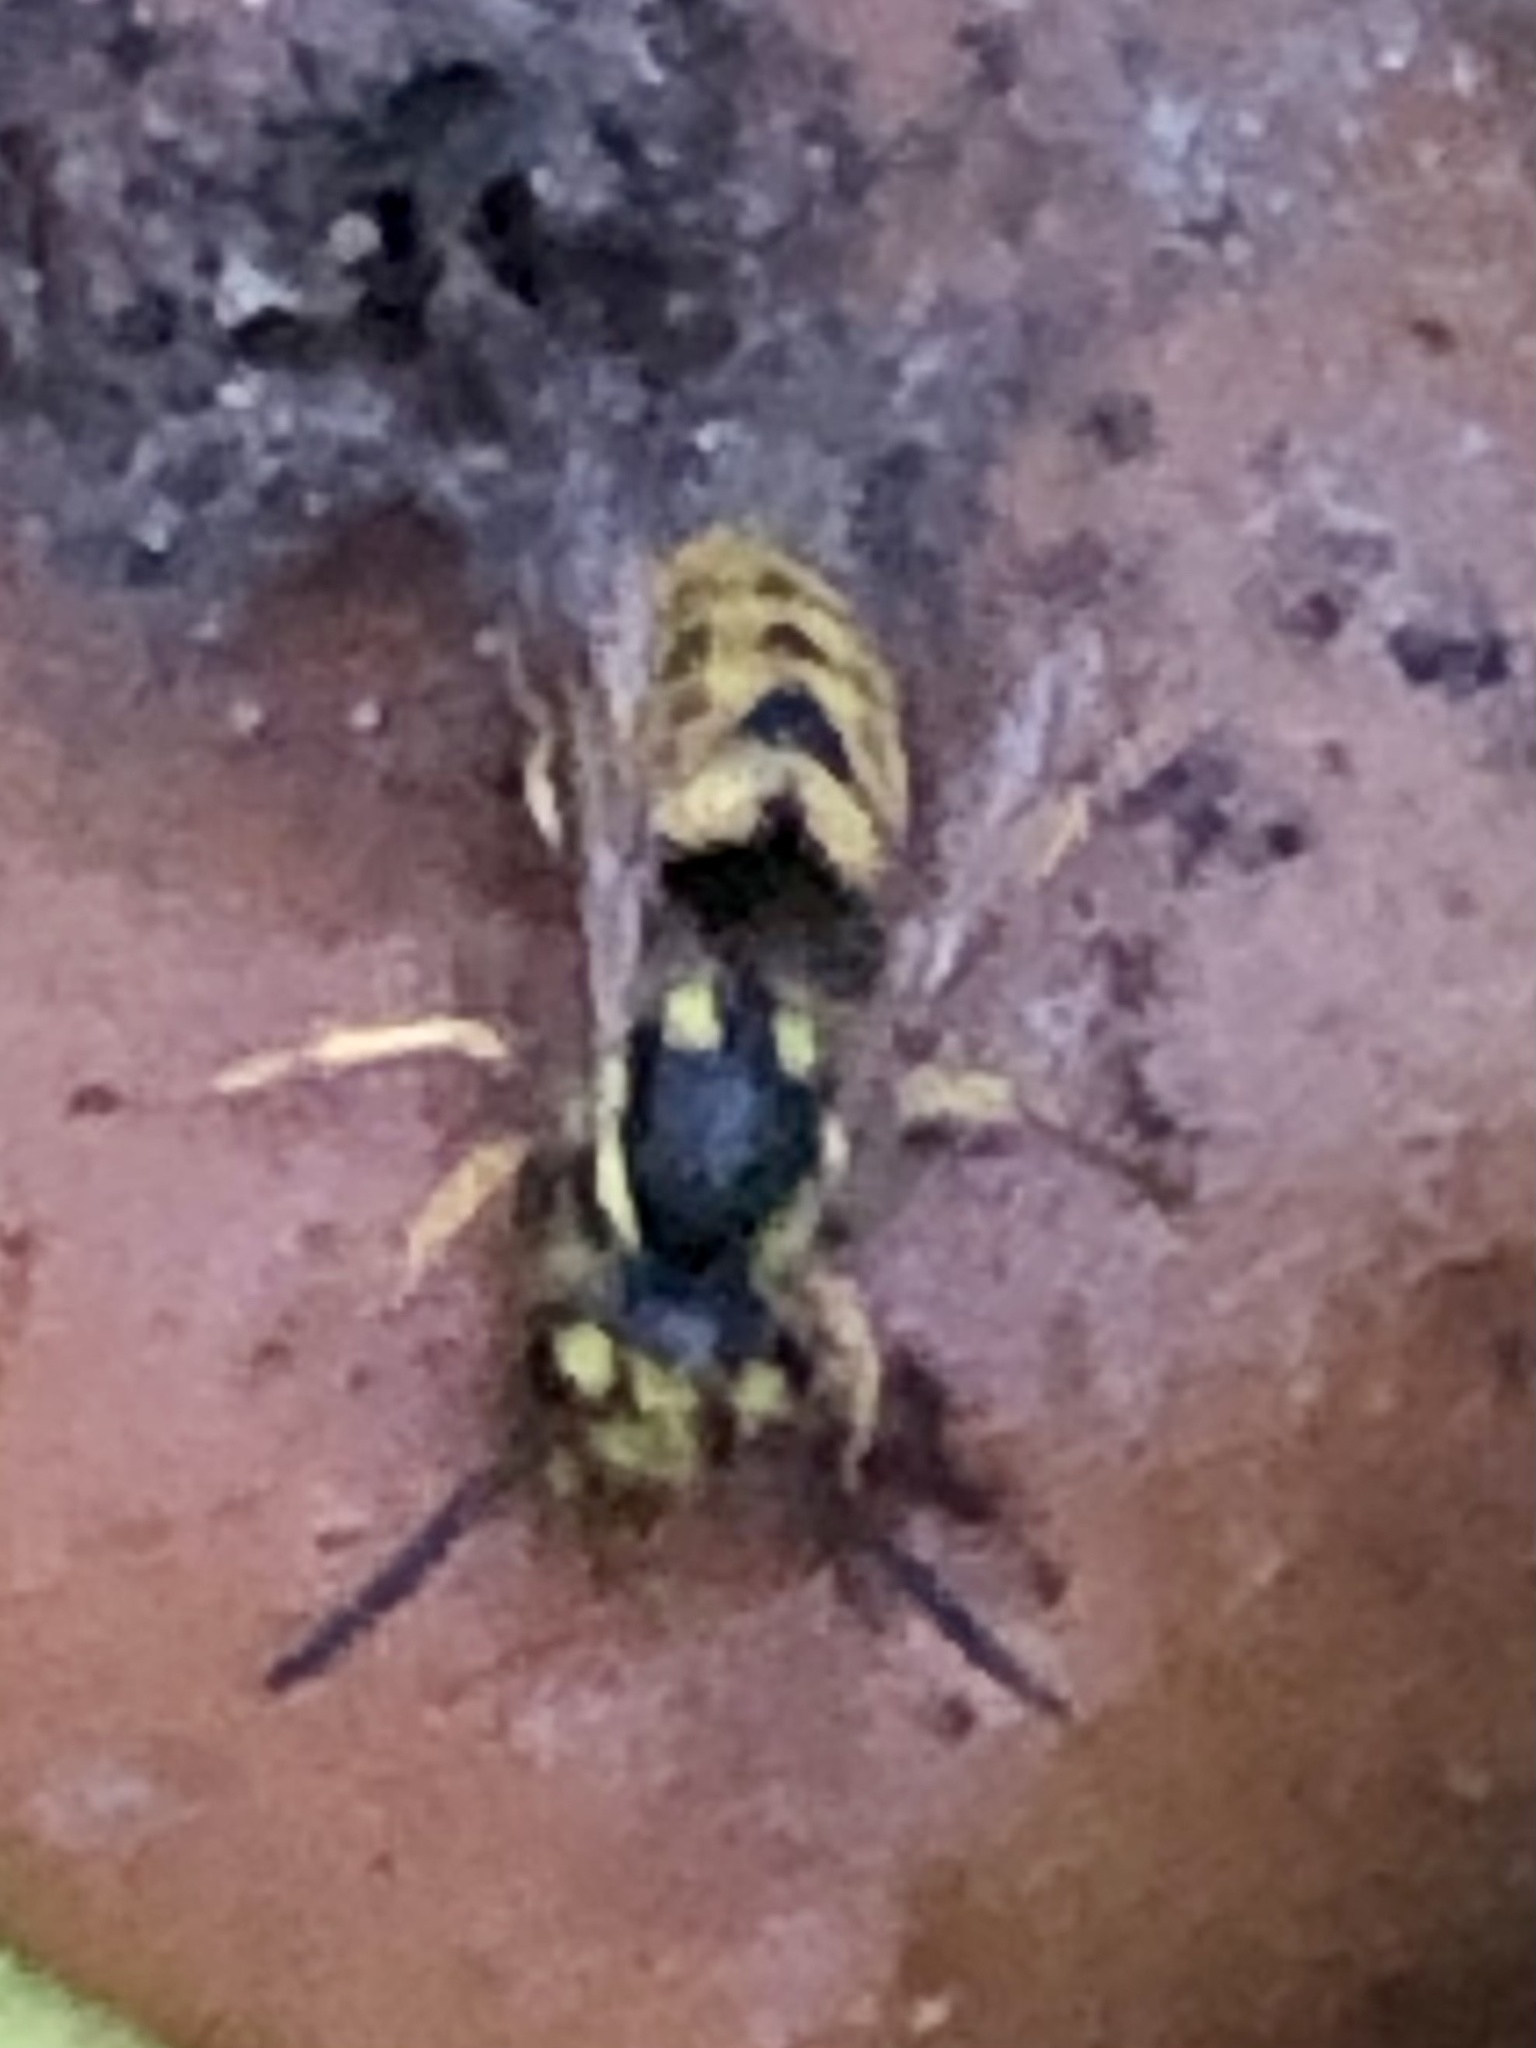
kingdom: Animalia
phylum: Arthropoda
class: Insecta
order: Hymenoptera
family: Vespidae
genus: Vespula
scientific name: Vespula germanica
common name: German wasp
